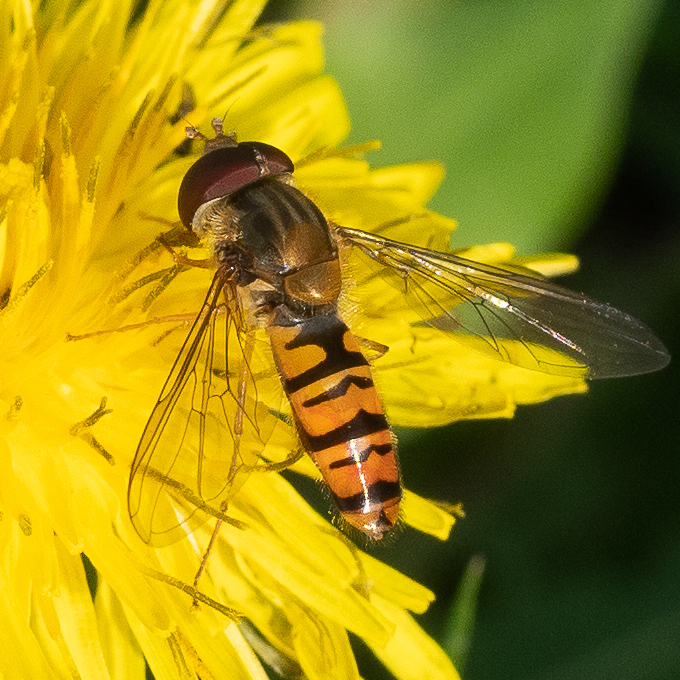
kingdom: Animalia
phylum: Arthropoda
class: Insecta
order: Diptera
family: Syrphidae
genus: Episyrphus
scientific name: Episyrphus balteatus
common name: Marmalade hoverfly
